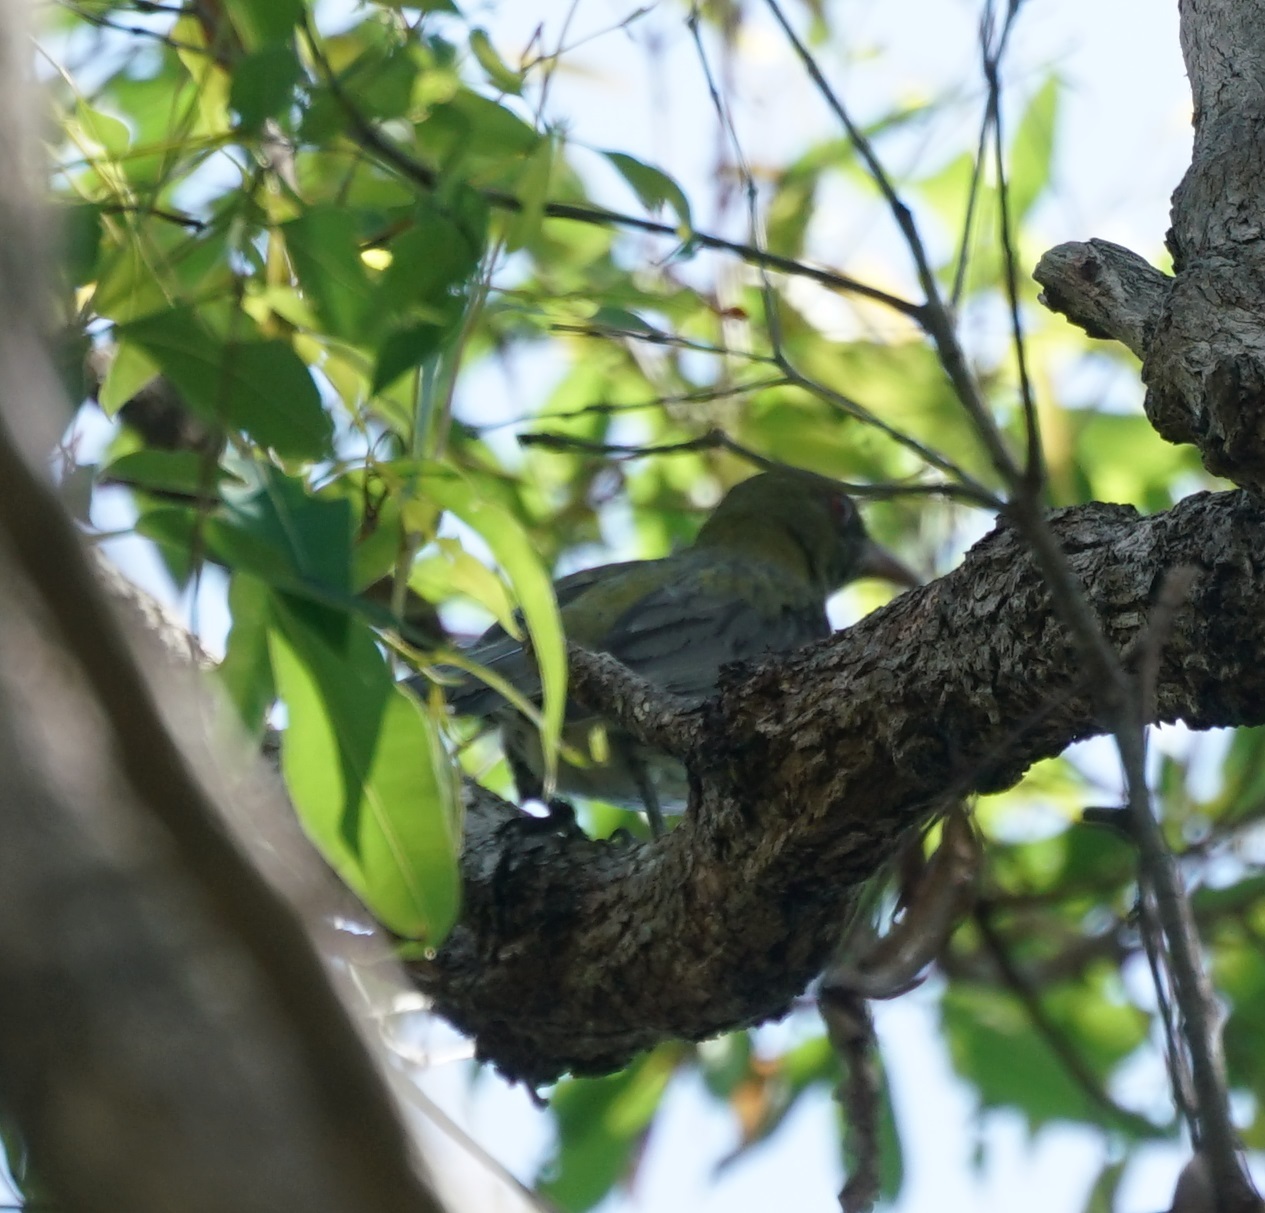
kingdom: Animalia
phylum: Chordata
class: Aves
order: Passeriformes
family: Oriolidae
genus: Oriolus
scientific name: Oriolus sagittatus
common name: Olive-backed oriole
